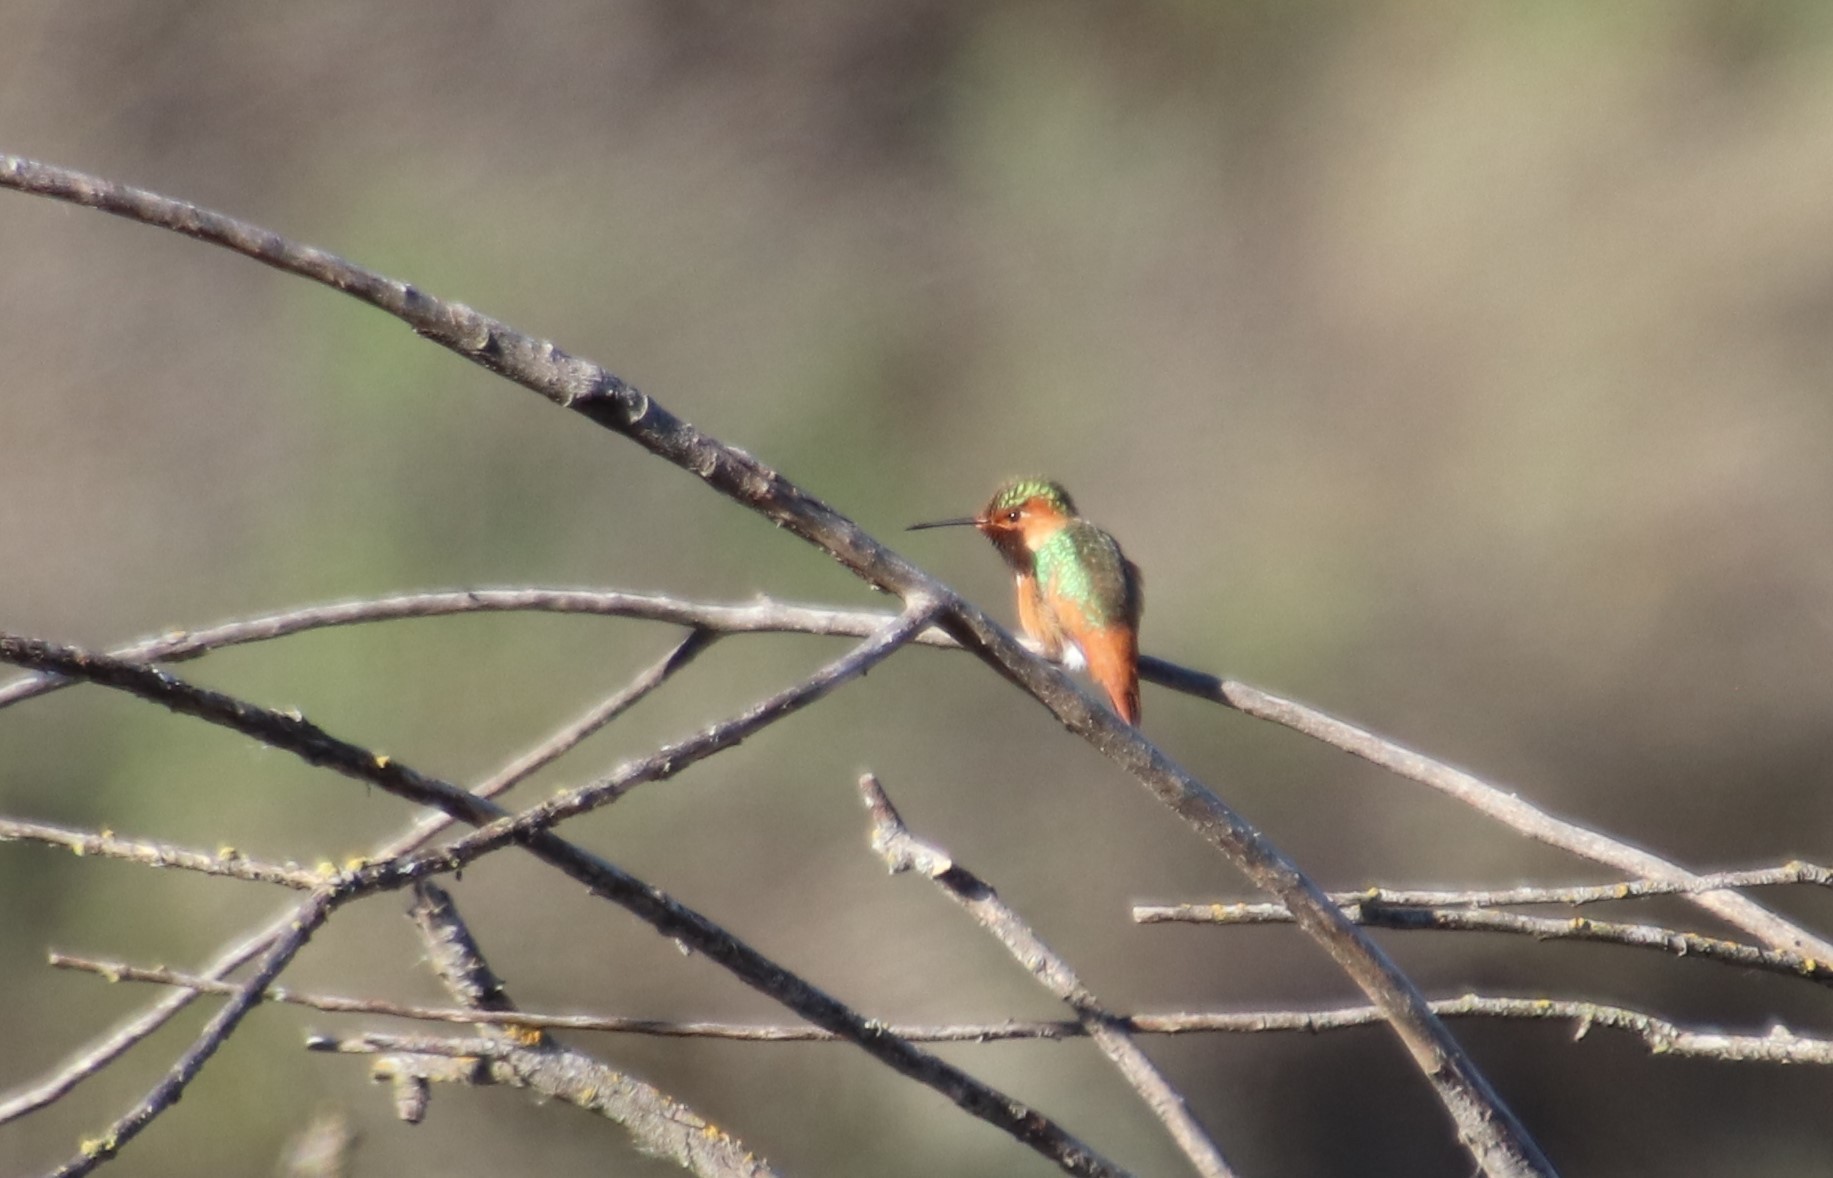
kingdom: Animalia
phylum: Chordata
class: Aves
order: Apodiformes
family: Trochilidae
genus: Selasphorus
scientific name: Selasphorus sasin
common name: Allen's hummingbird
